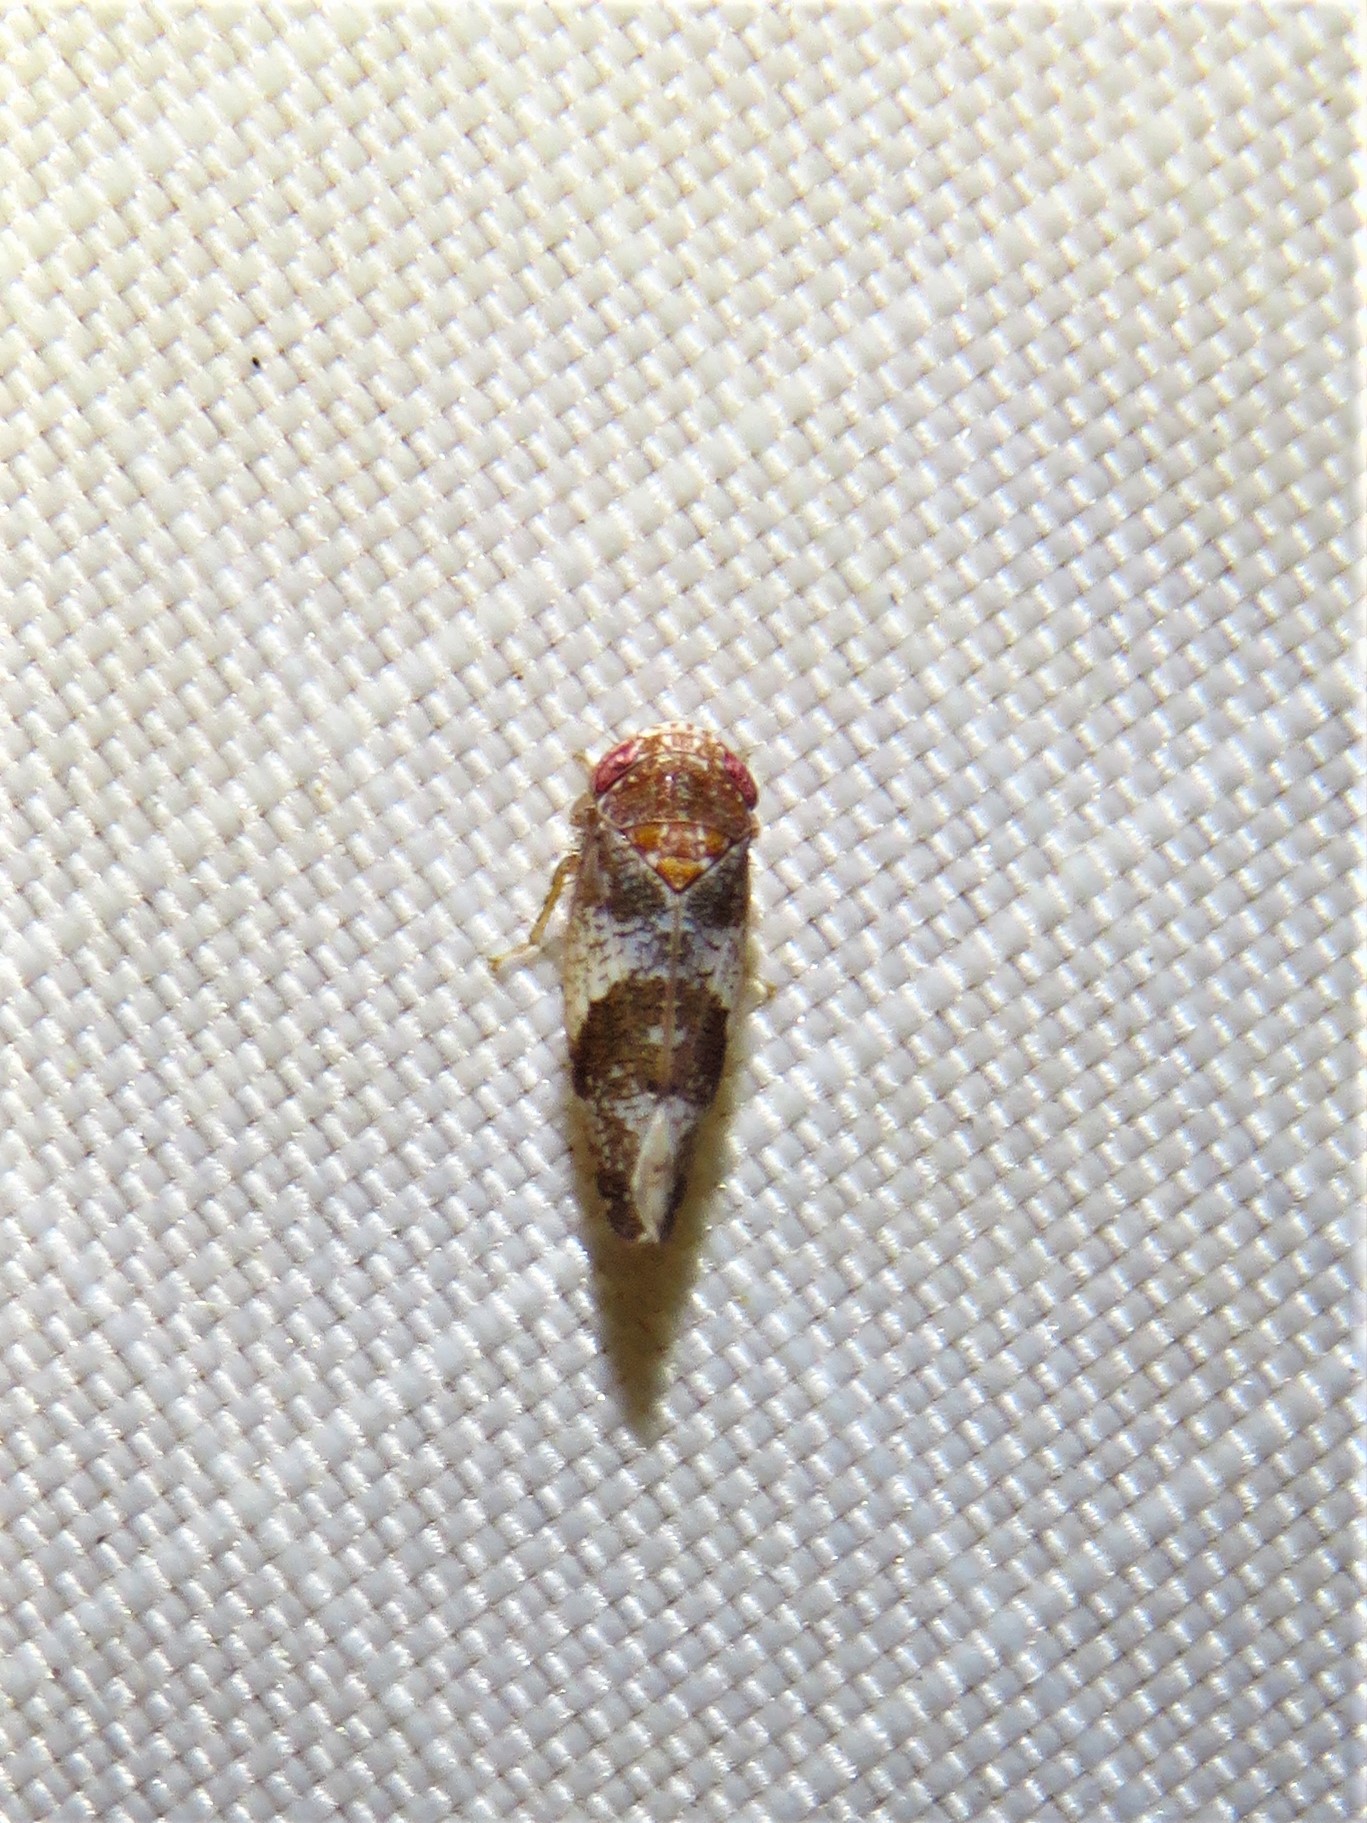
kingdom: Animalia
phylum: Arthropoda
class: Insecta
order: Hemiptera
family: Cicadellidae
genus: Norvellina
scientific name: Norvellina helenae
